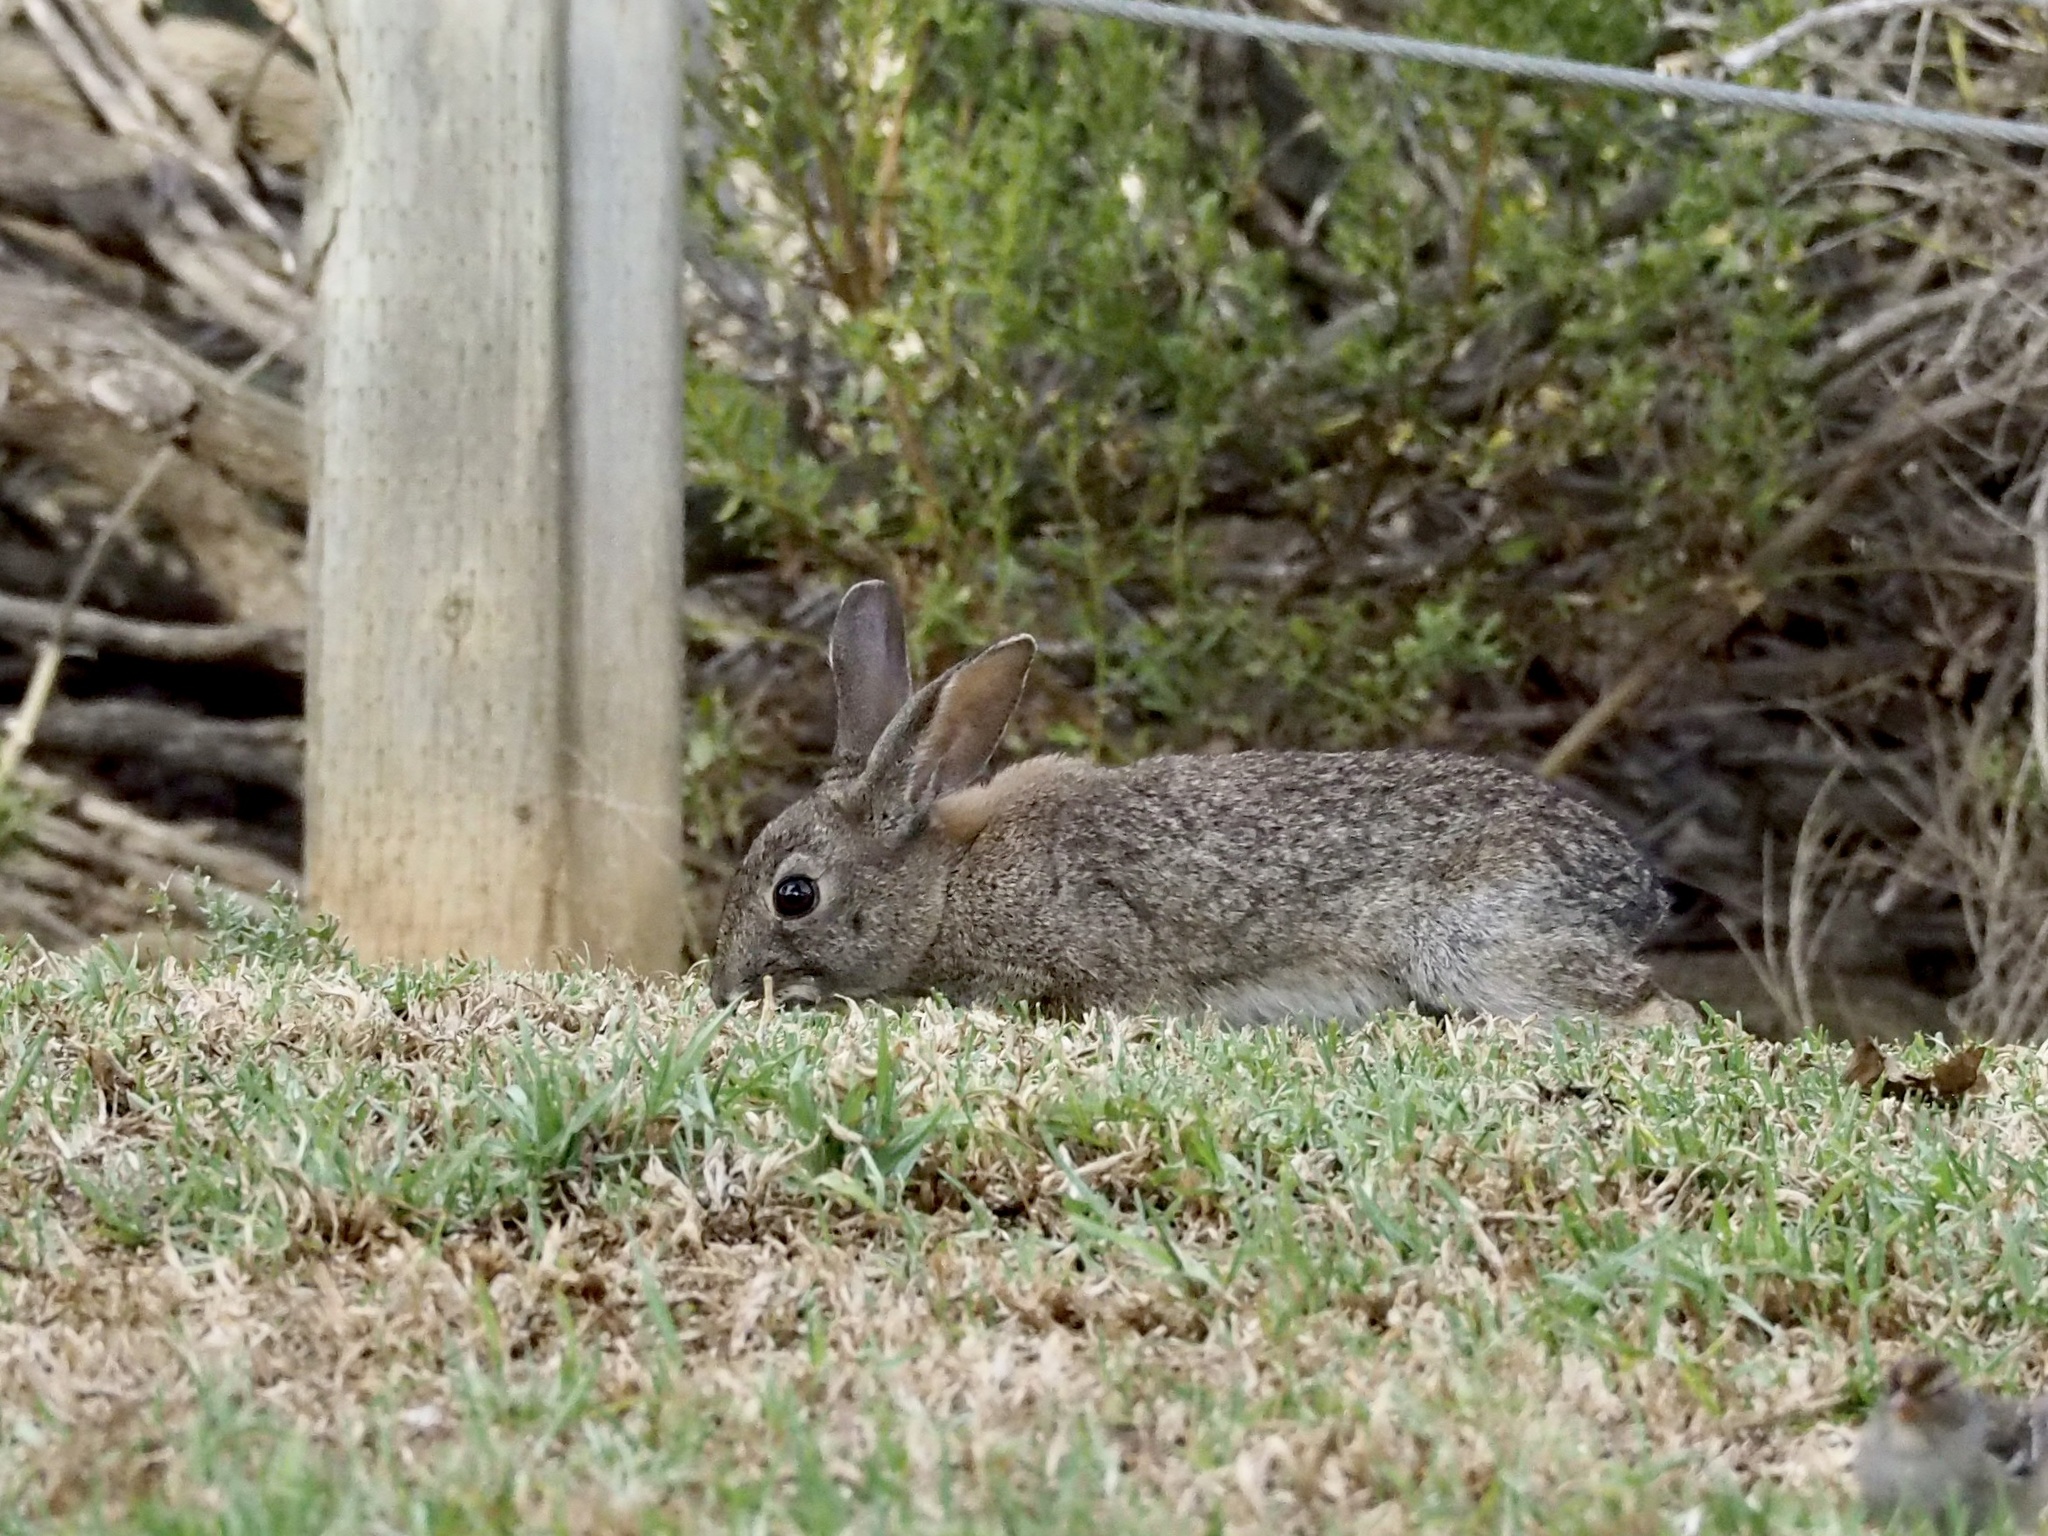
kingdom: Animalia
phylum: Chordata
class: Mammalia
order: Lagomorpha
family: Leporidae
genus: Sylvilagus
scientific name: Sylvilagus bachmani
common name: Brush rabbit
